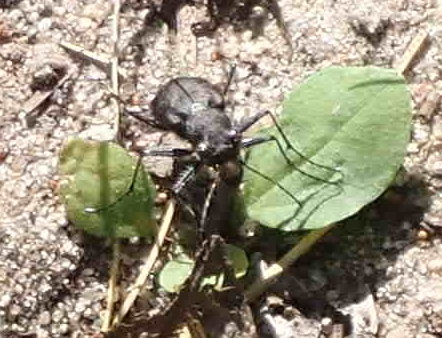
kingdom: Animalia
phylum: Arthropoda
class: Insecta
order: Coleoptera
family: Carabidae
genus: Cicindela
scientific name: Cicindela longilabris
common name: Boreal long-lipped tiger beetle
